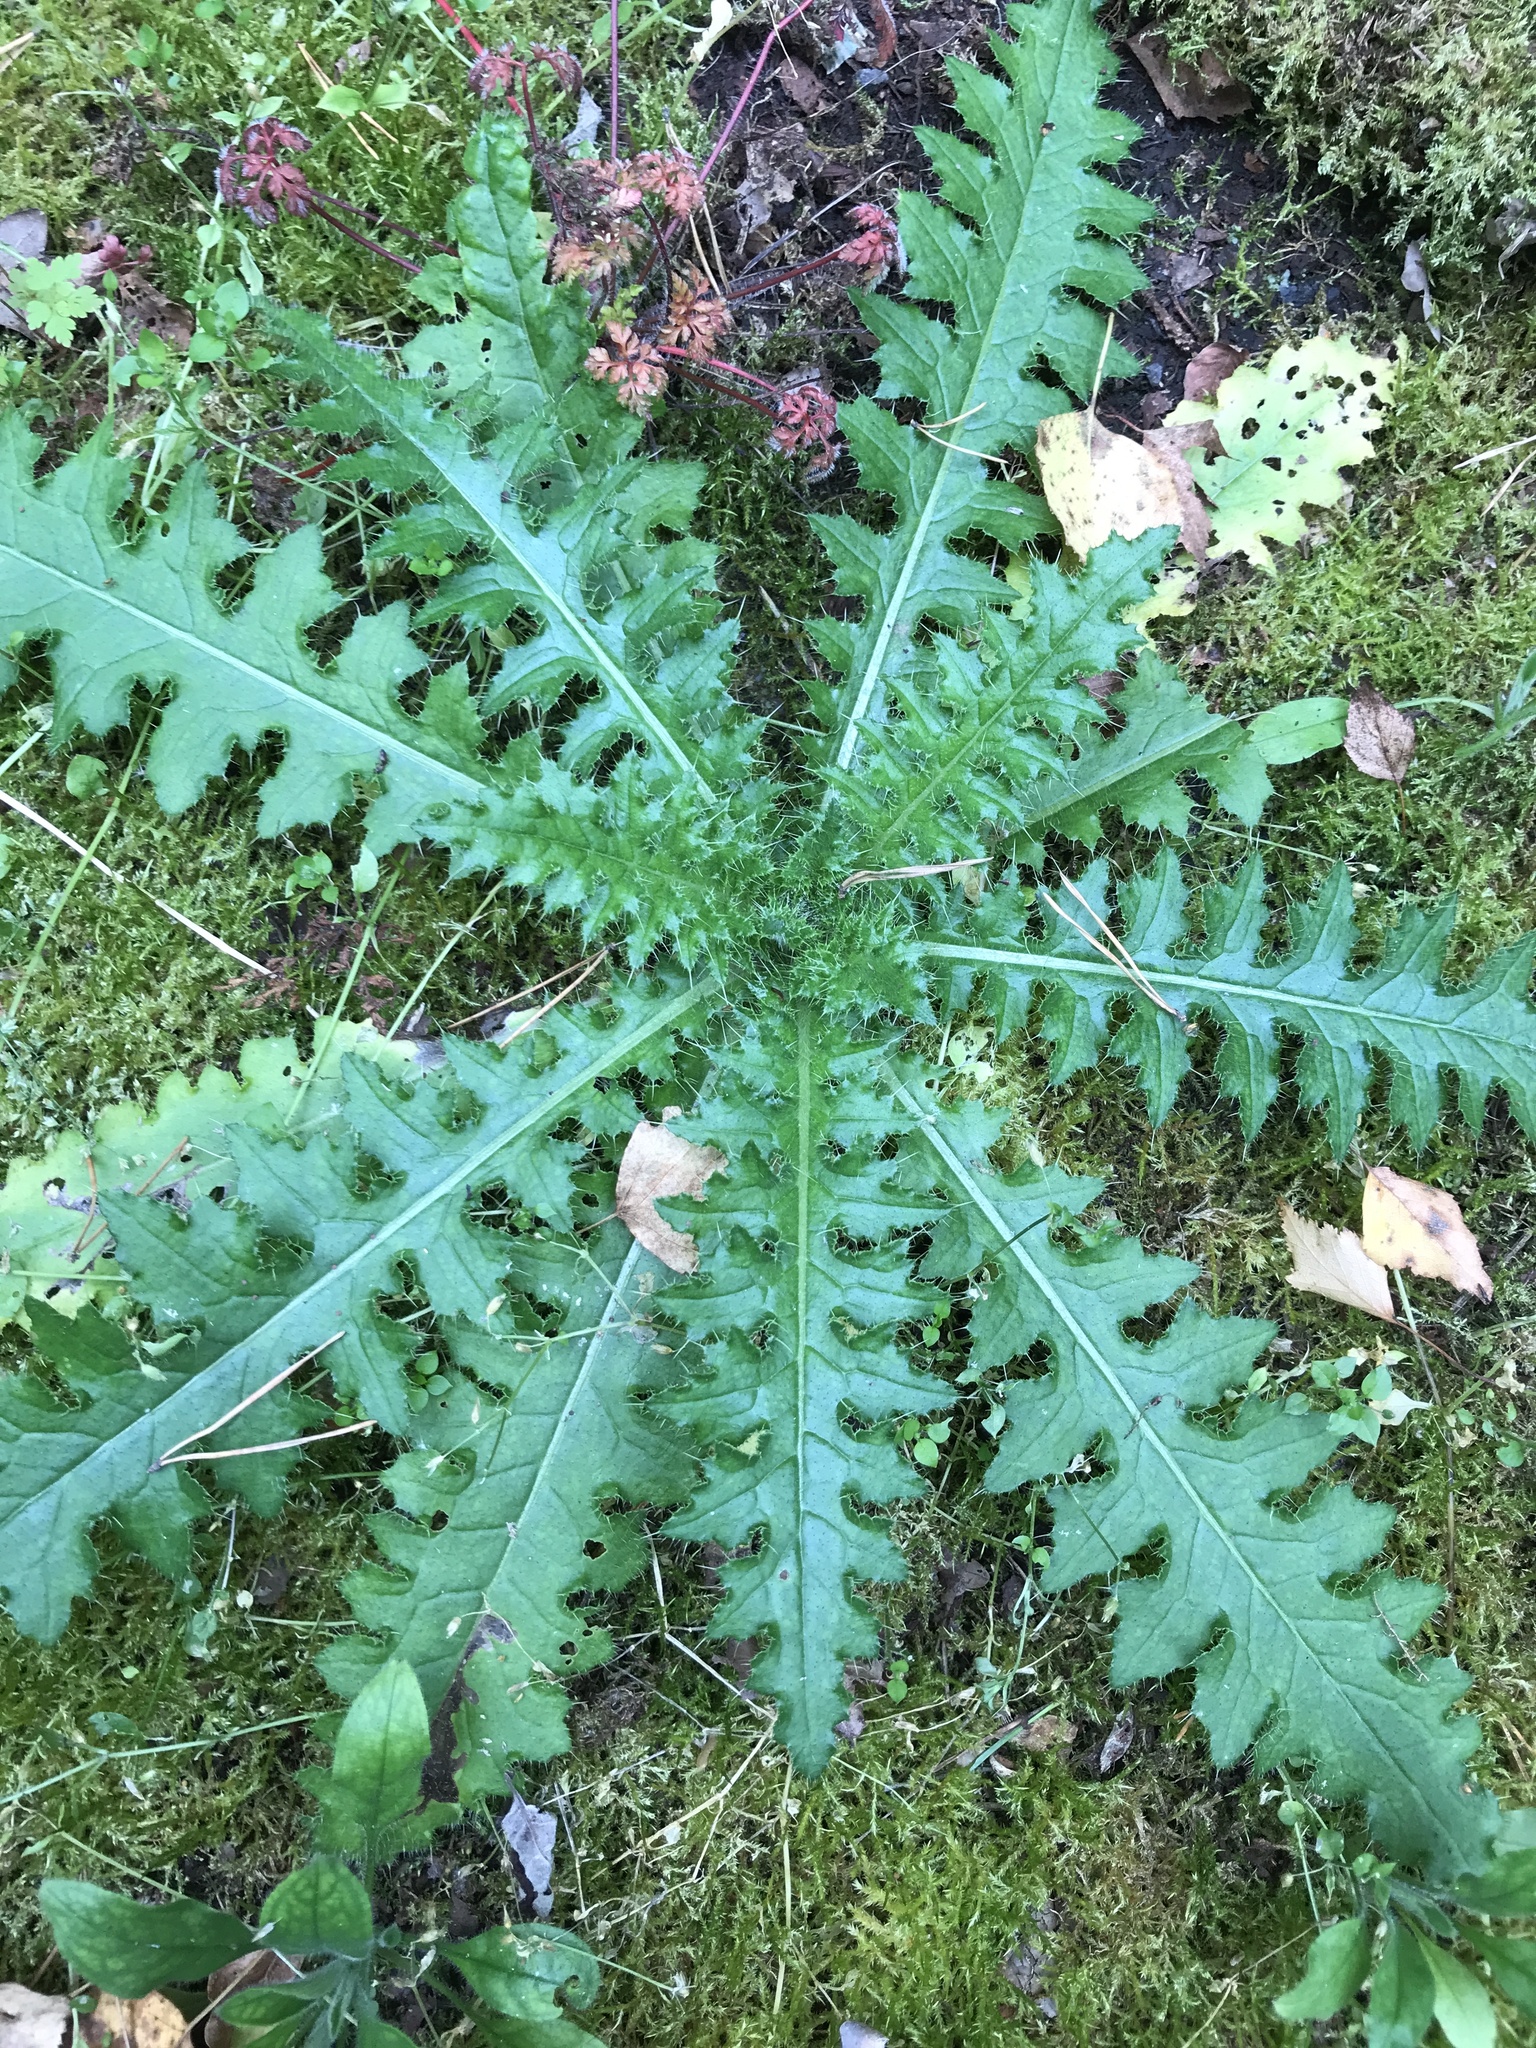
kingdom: Plantae
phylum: Tracheophyta
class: Magnoliopsida
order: Asterales
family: Asteraceae
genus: Cirsium
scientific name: Cirsium palustre
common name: Marsh thistle
